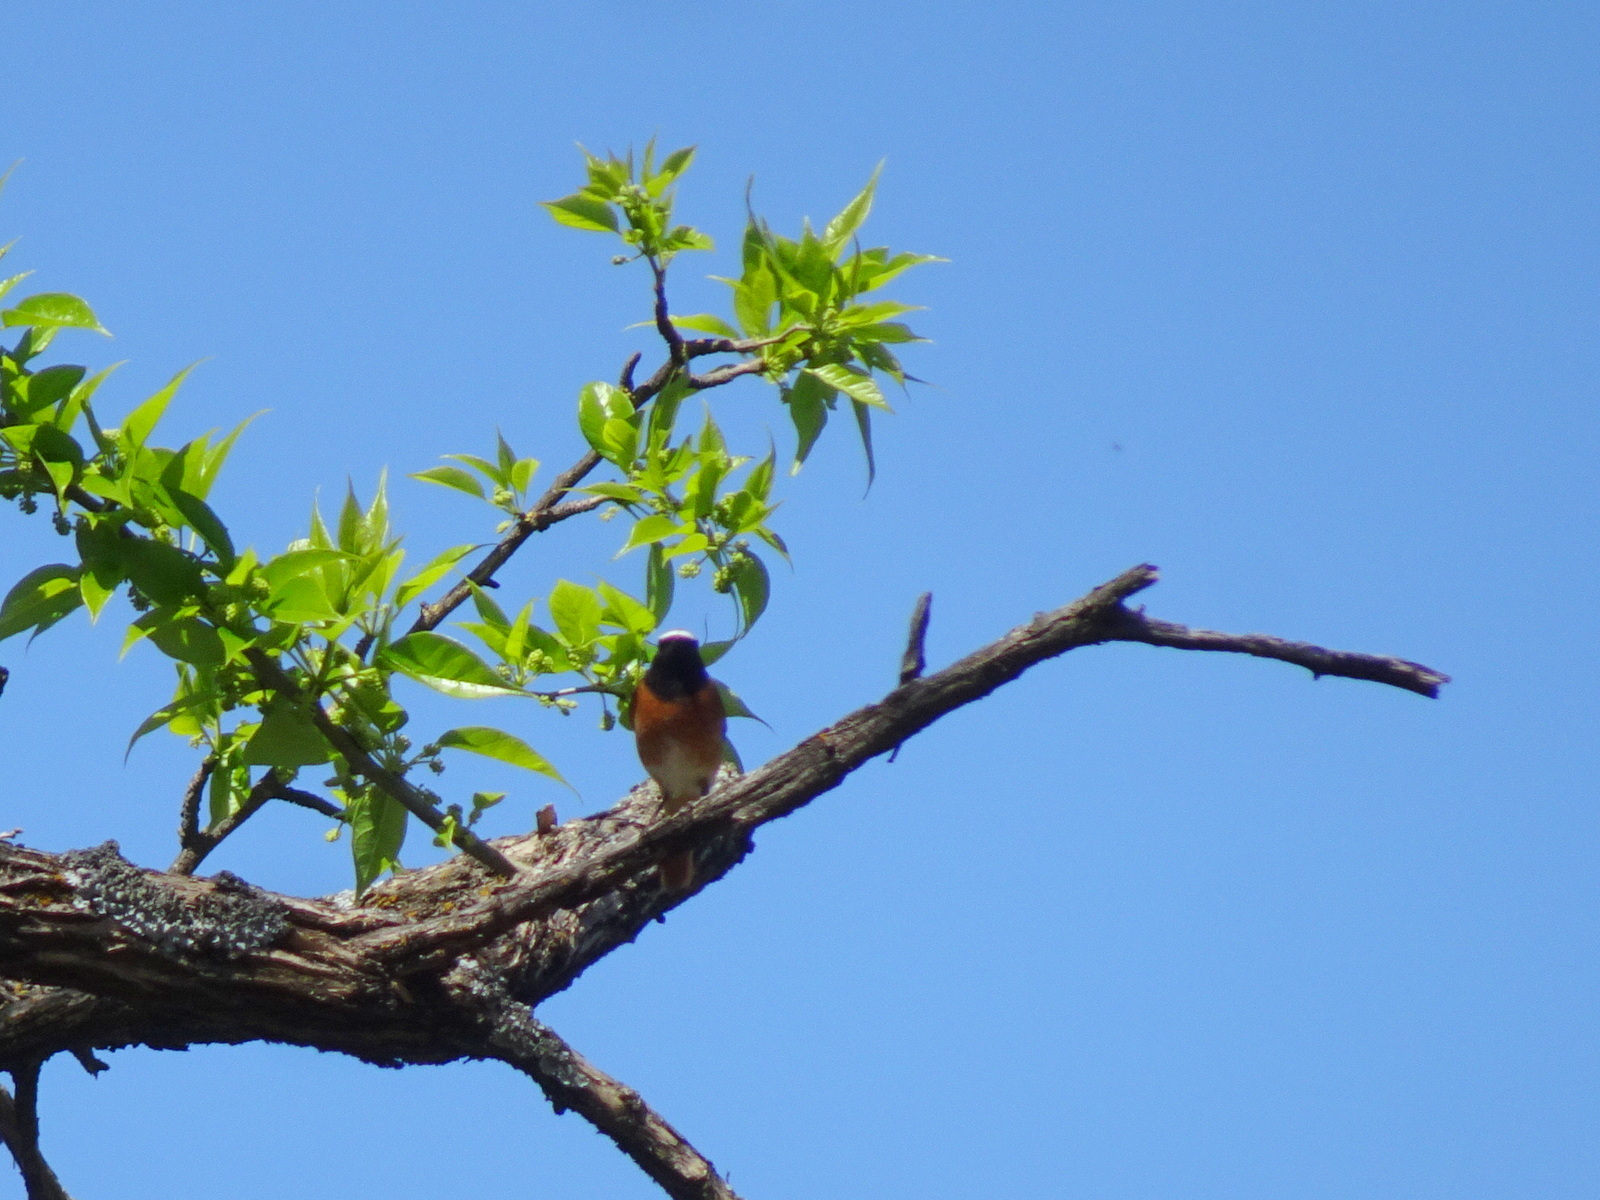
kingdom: Animalia
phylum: Chordata
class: Aves
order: Passeriformes
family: Muscicapidae
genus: Phoenicurus
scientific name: Phoenicurus phoenicurus
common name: Common redstart
